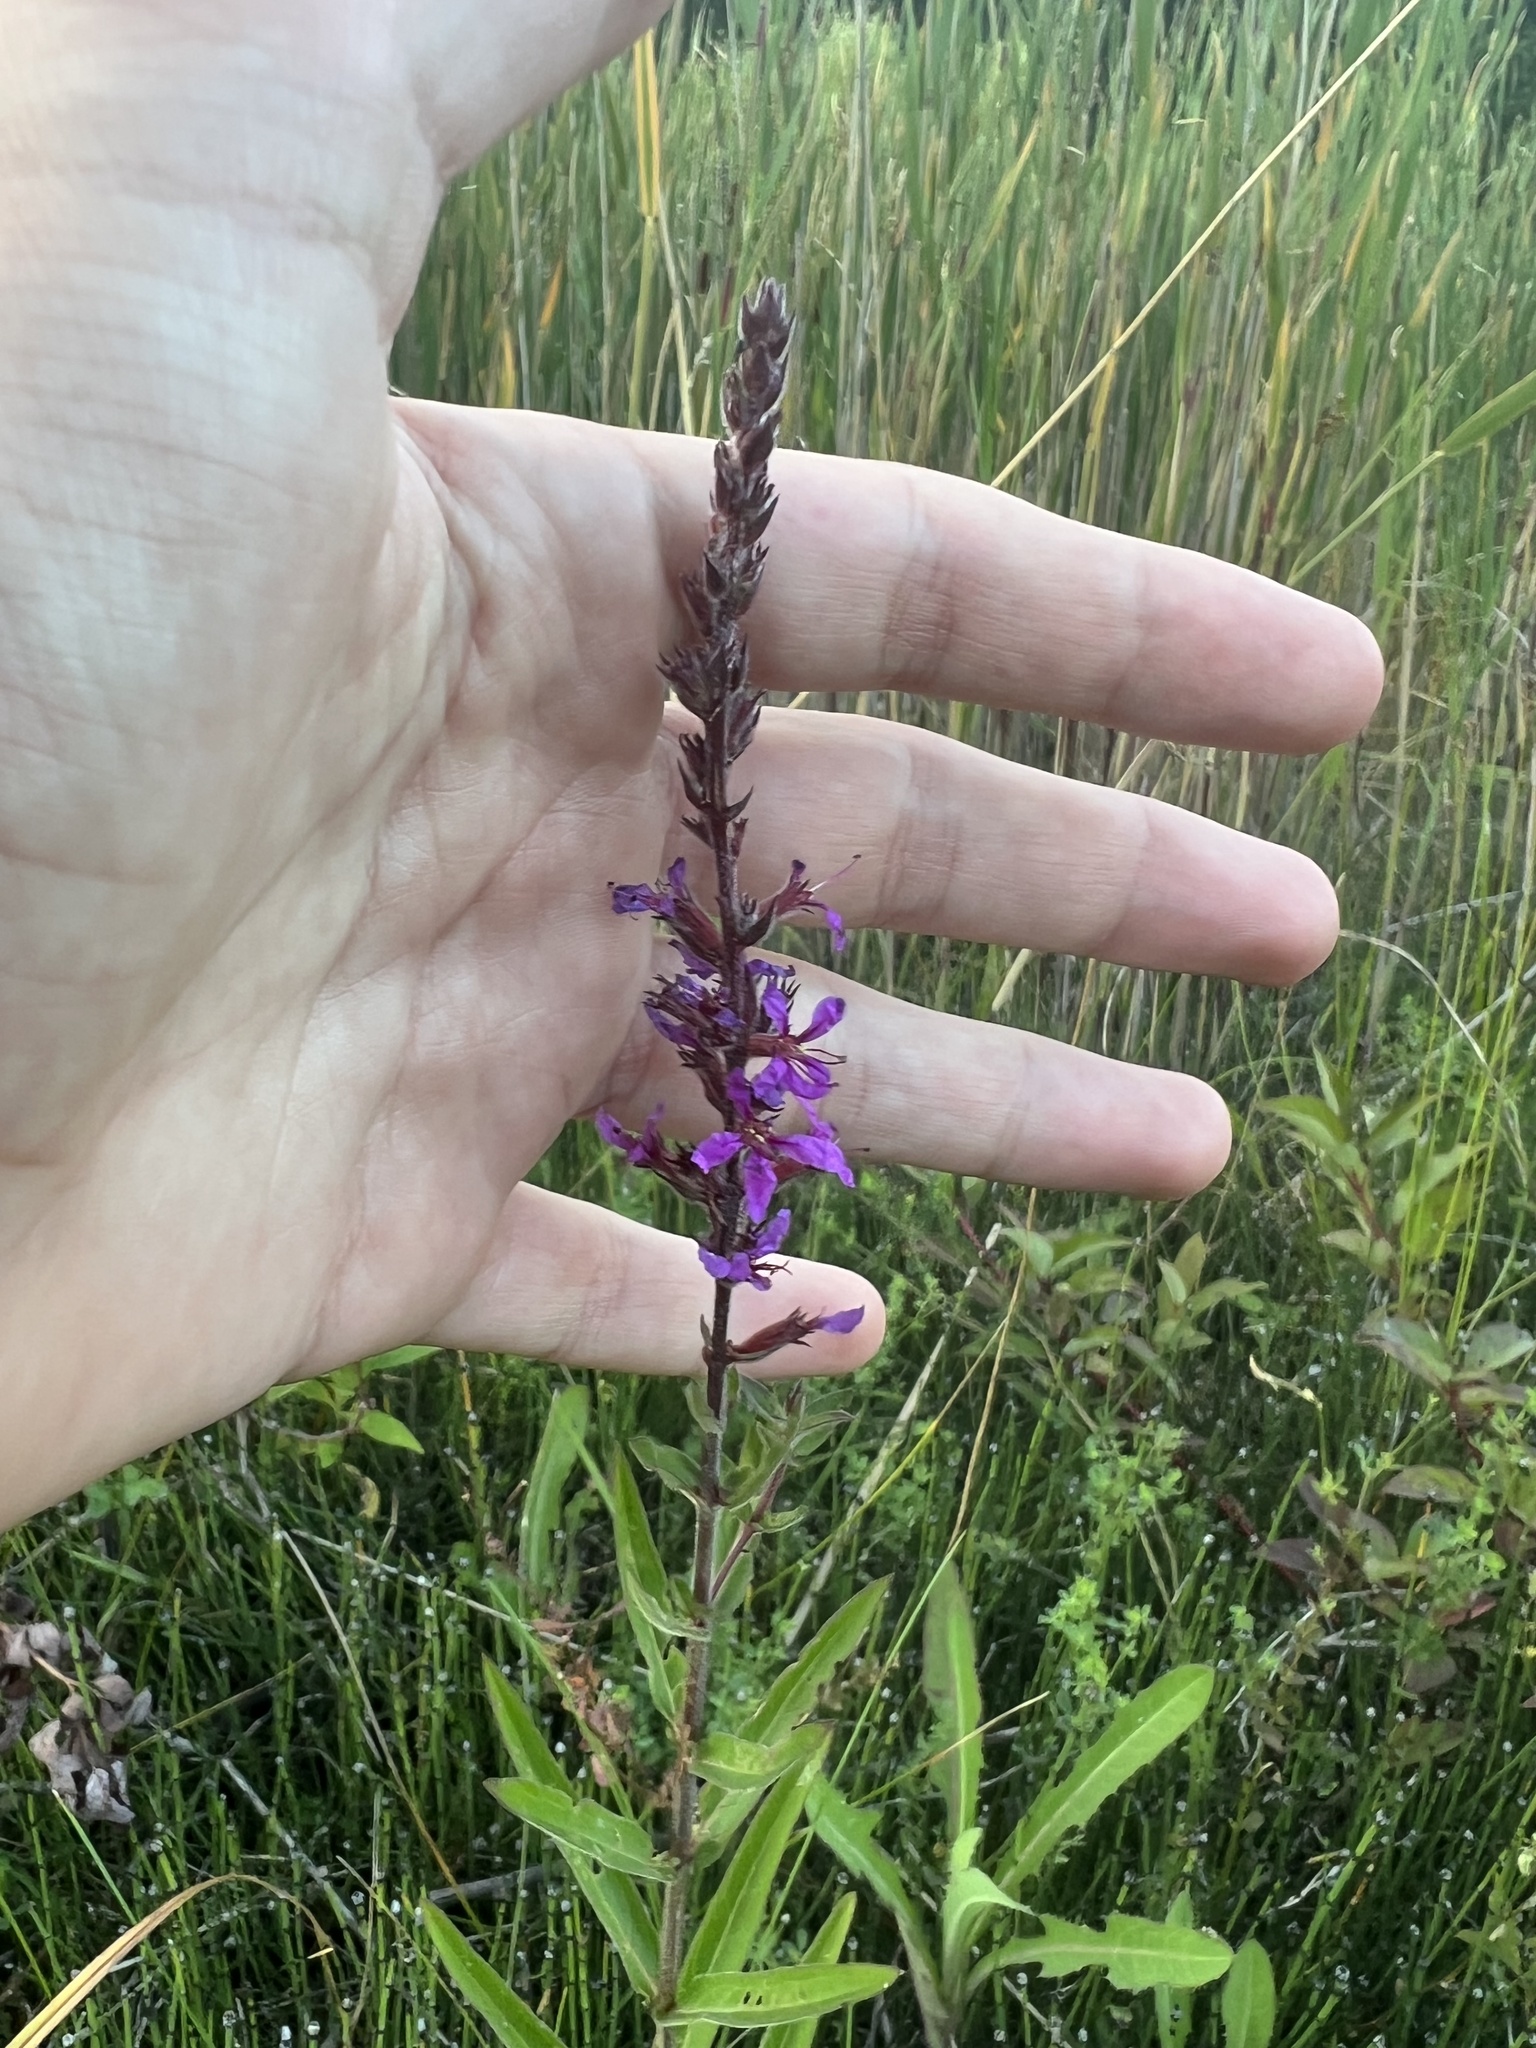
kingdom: Plantae
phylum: Tracheophyta
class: Magnoliopsida
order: Myrtales
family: Lythraceae
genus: Lythrum
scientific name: Lythrum salicaria
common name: Purple loosestrife
